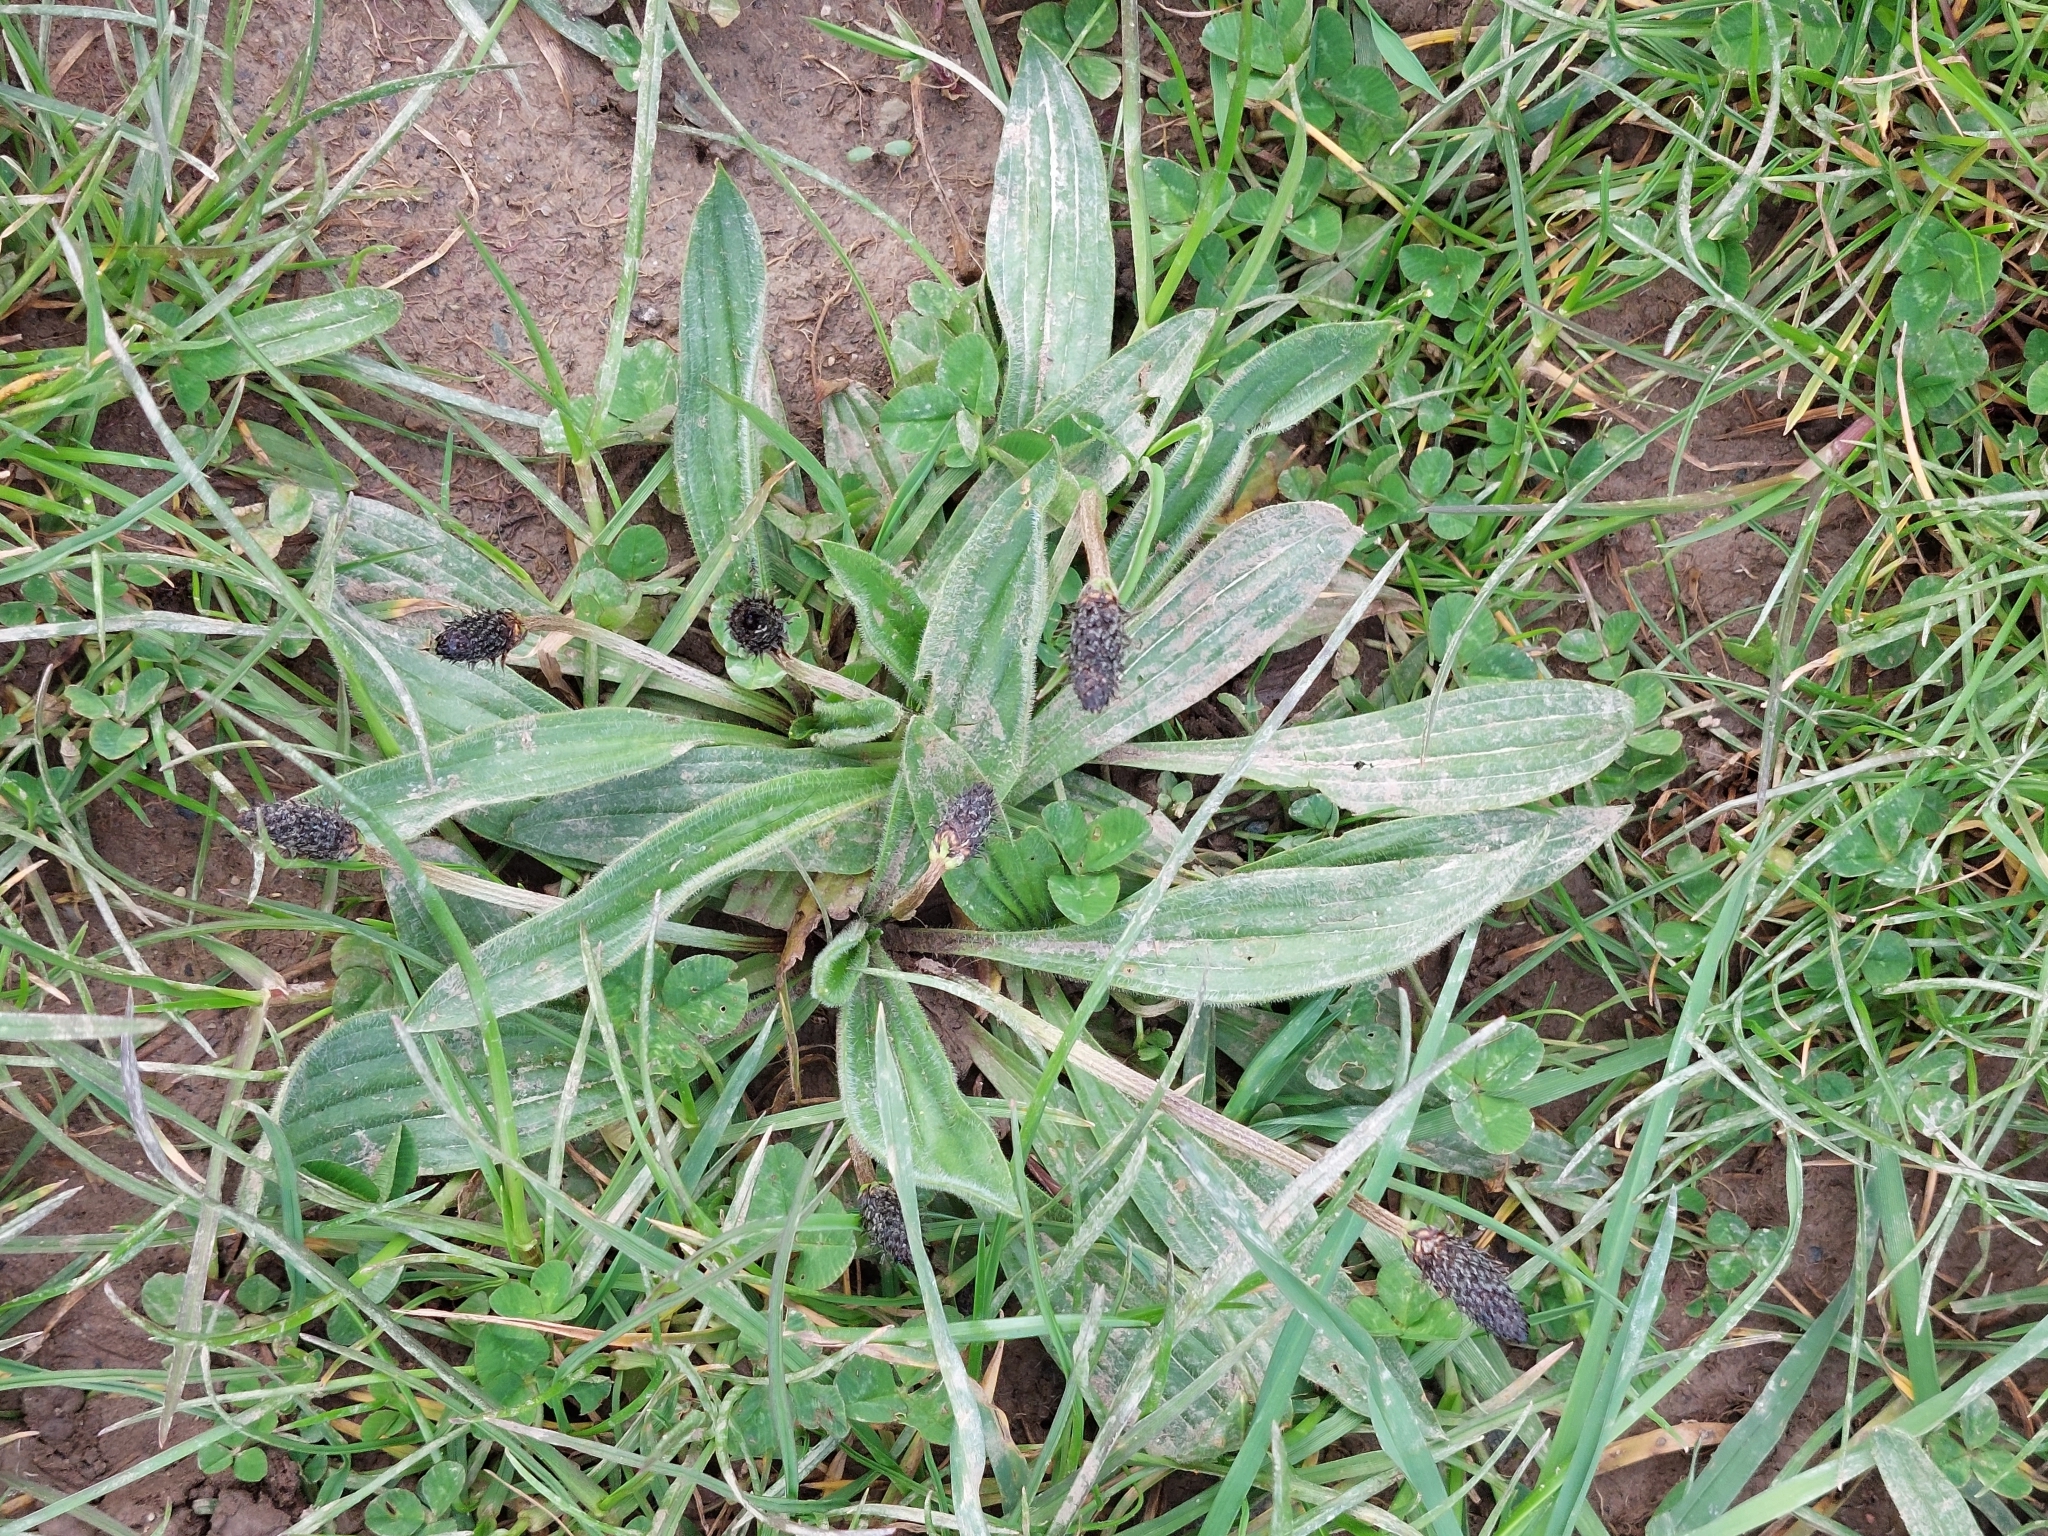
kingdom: Plantae
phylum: Tracheophyta
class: Magnoliopsida
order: Lamiales
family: Plantaginaceae
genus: Plantago
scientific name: Plantago lanceolata
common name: Ribwort plantain
